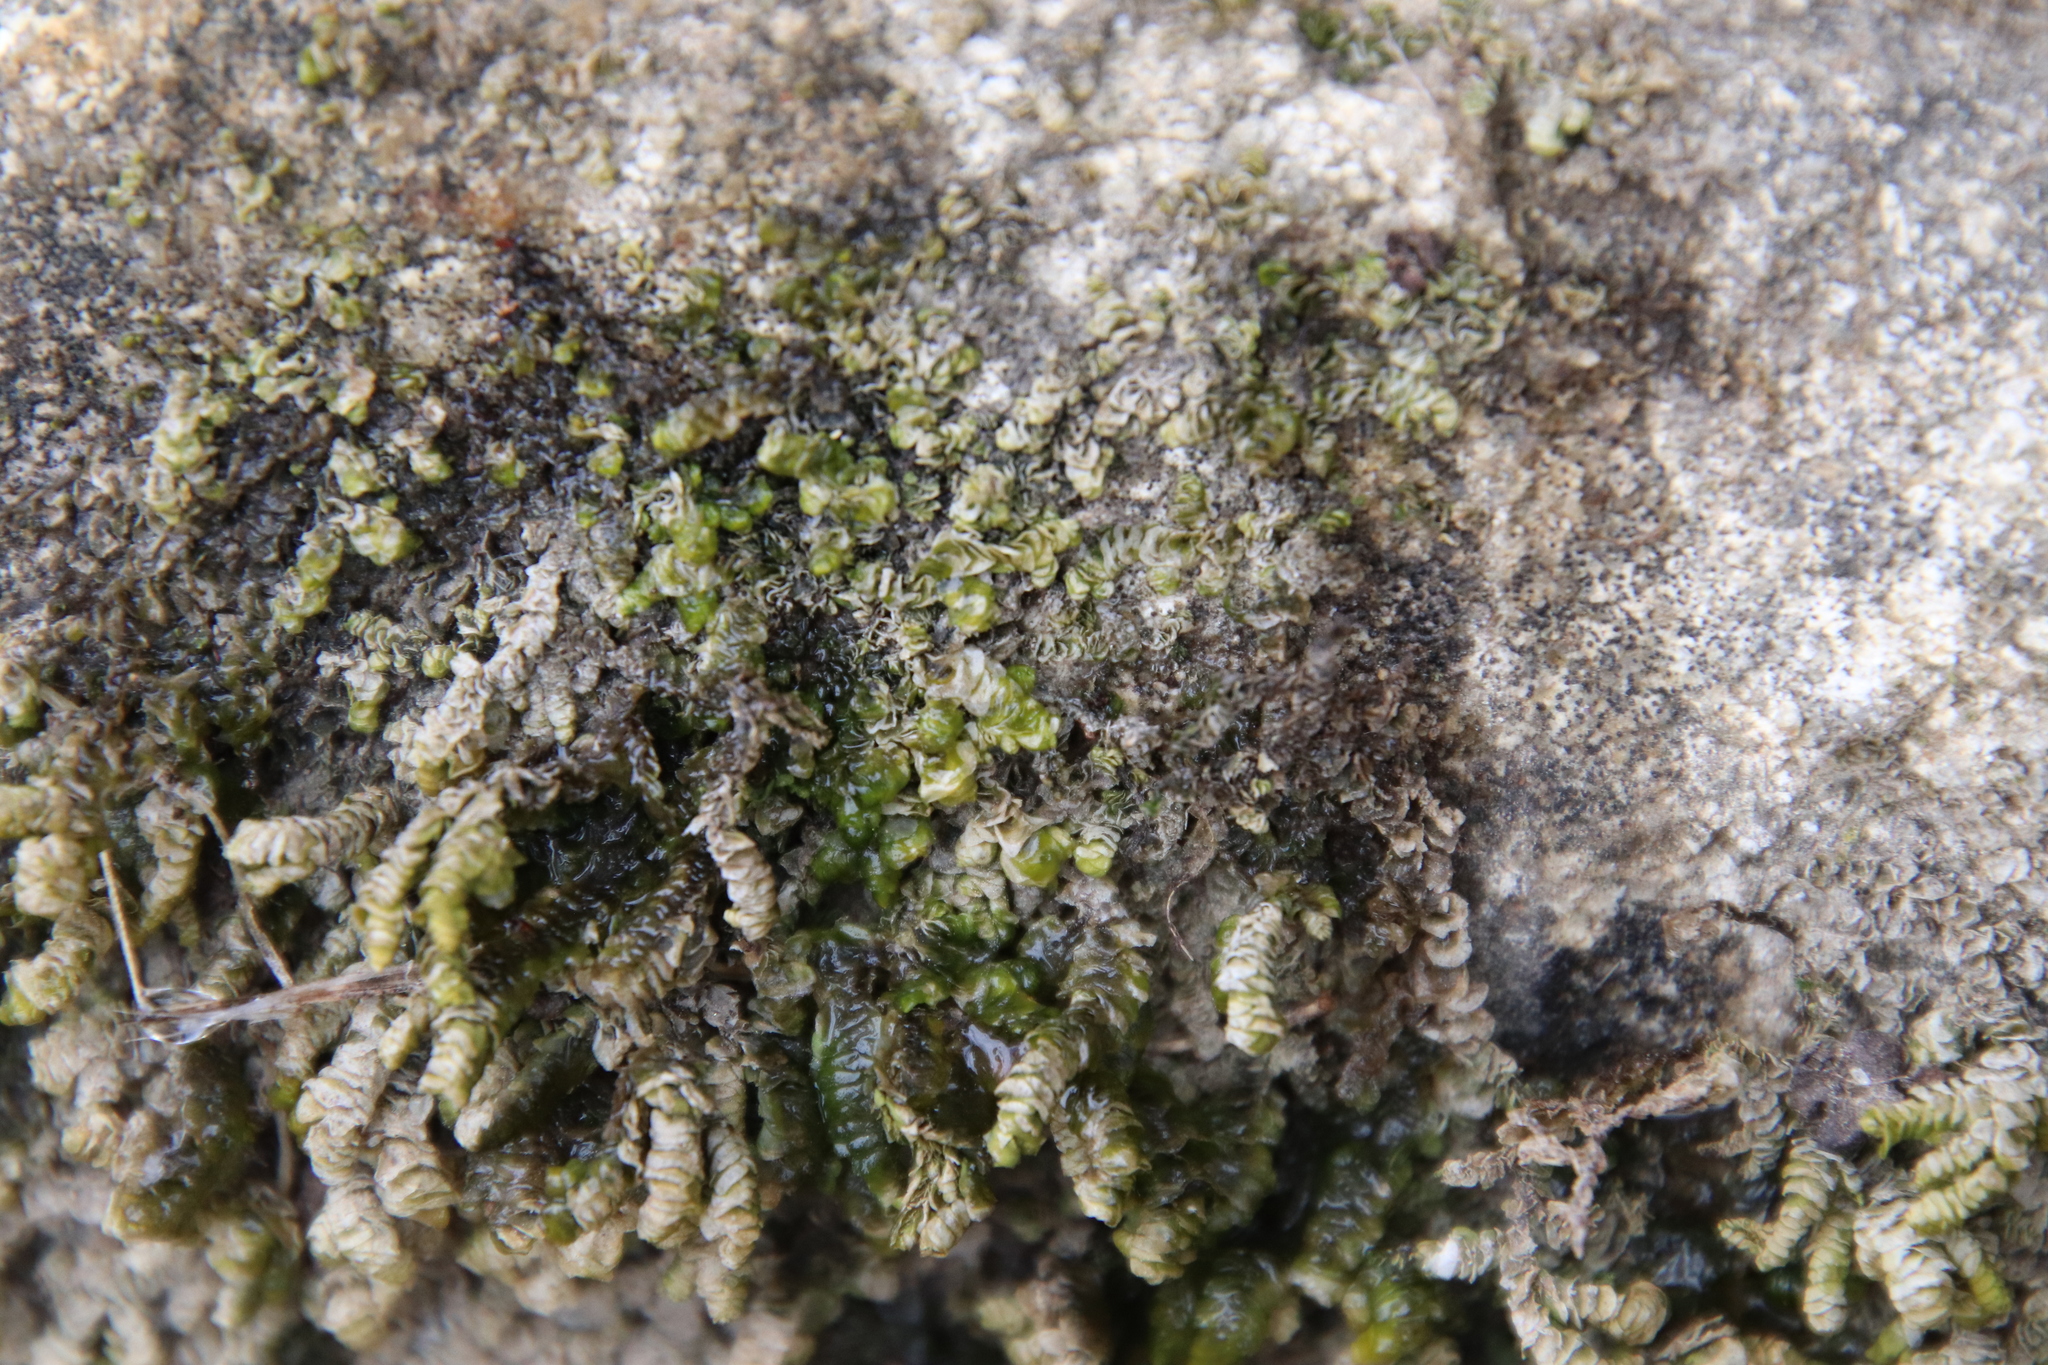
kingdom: Plantae
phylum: Marchantiophyta
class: Jungermanniopsida
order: Porellales
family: Porellaceae
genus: Porella
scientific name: Porella bolanderi
